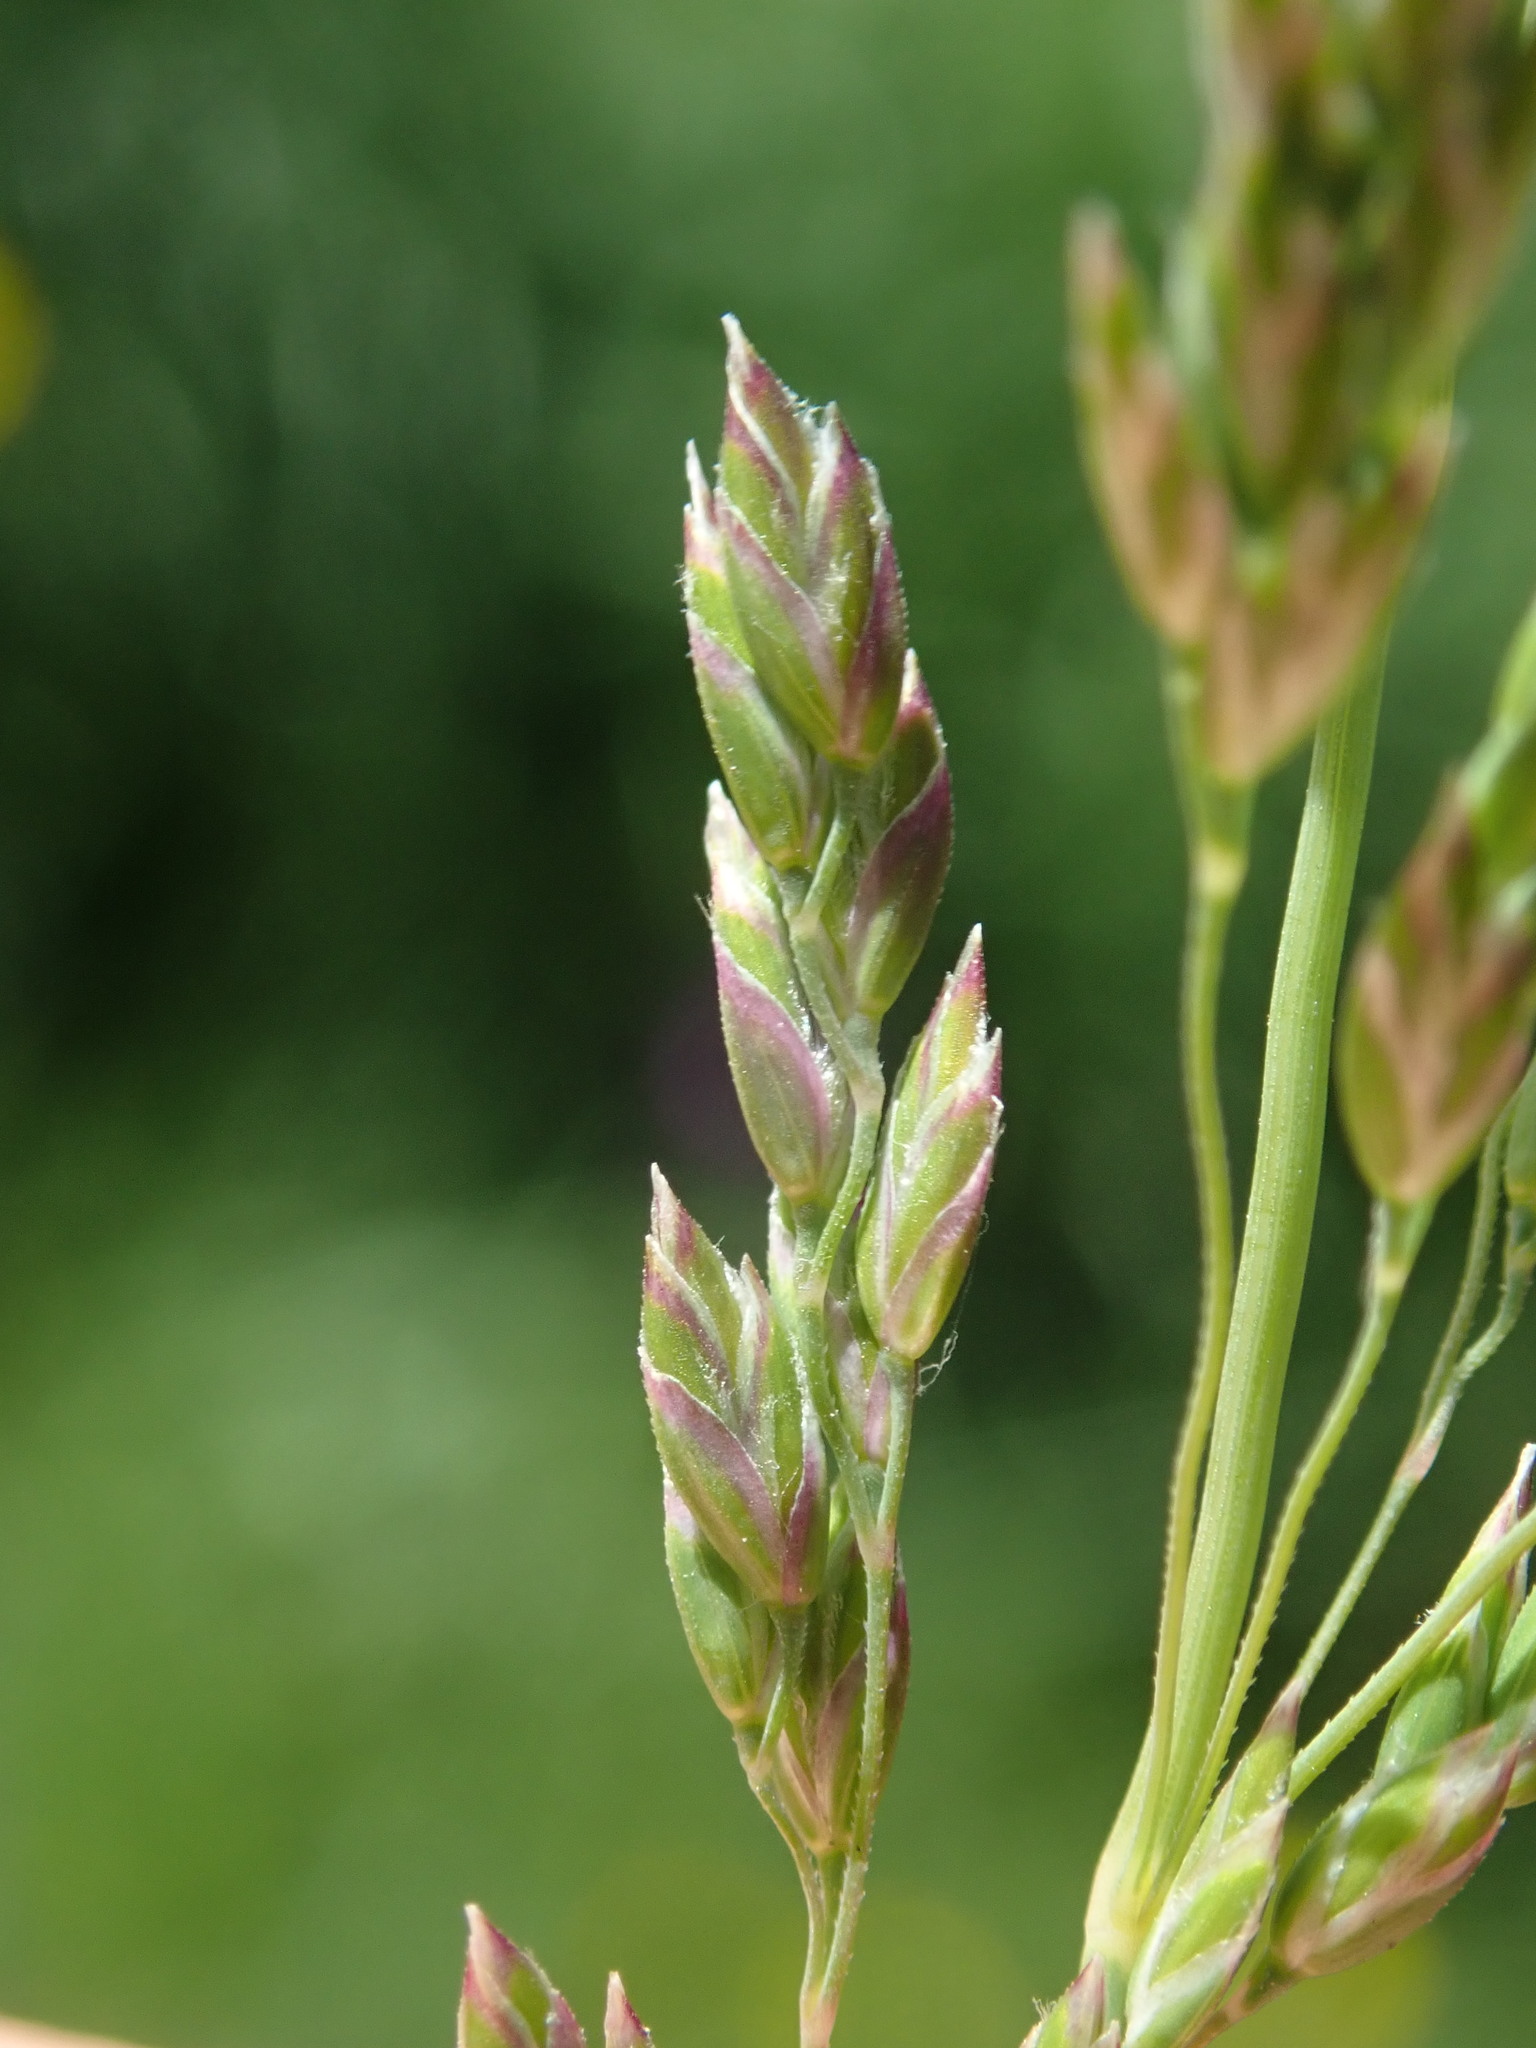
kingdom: Plantae
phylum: Tracheophyta
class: Liliopsida
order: Poales
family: Poaceae
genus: Poa
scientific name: Poa pratensis
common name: Kentucky bluegrass
